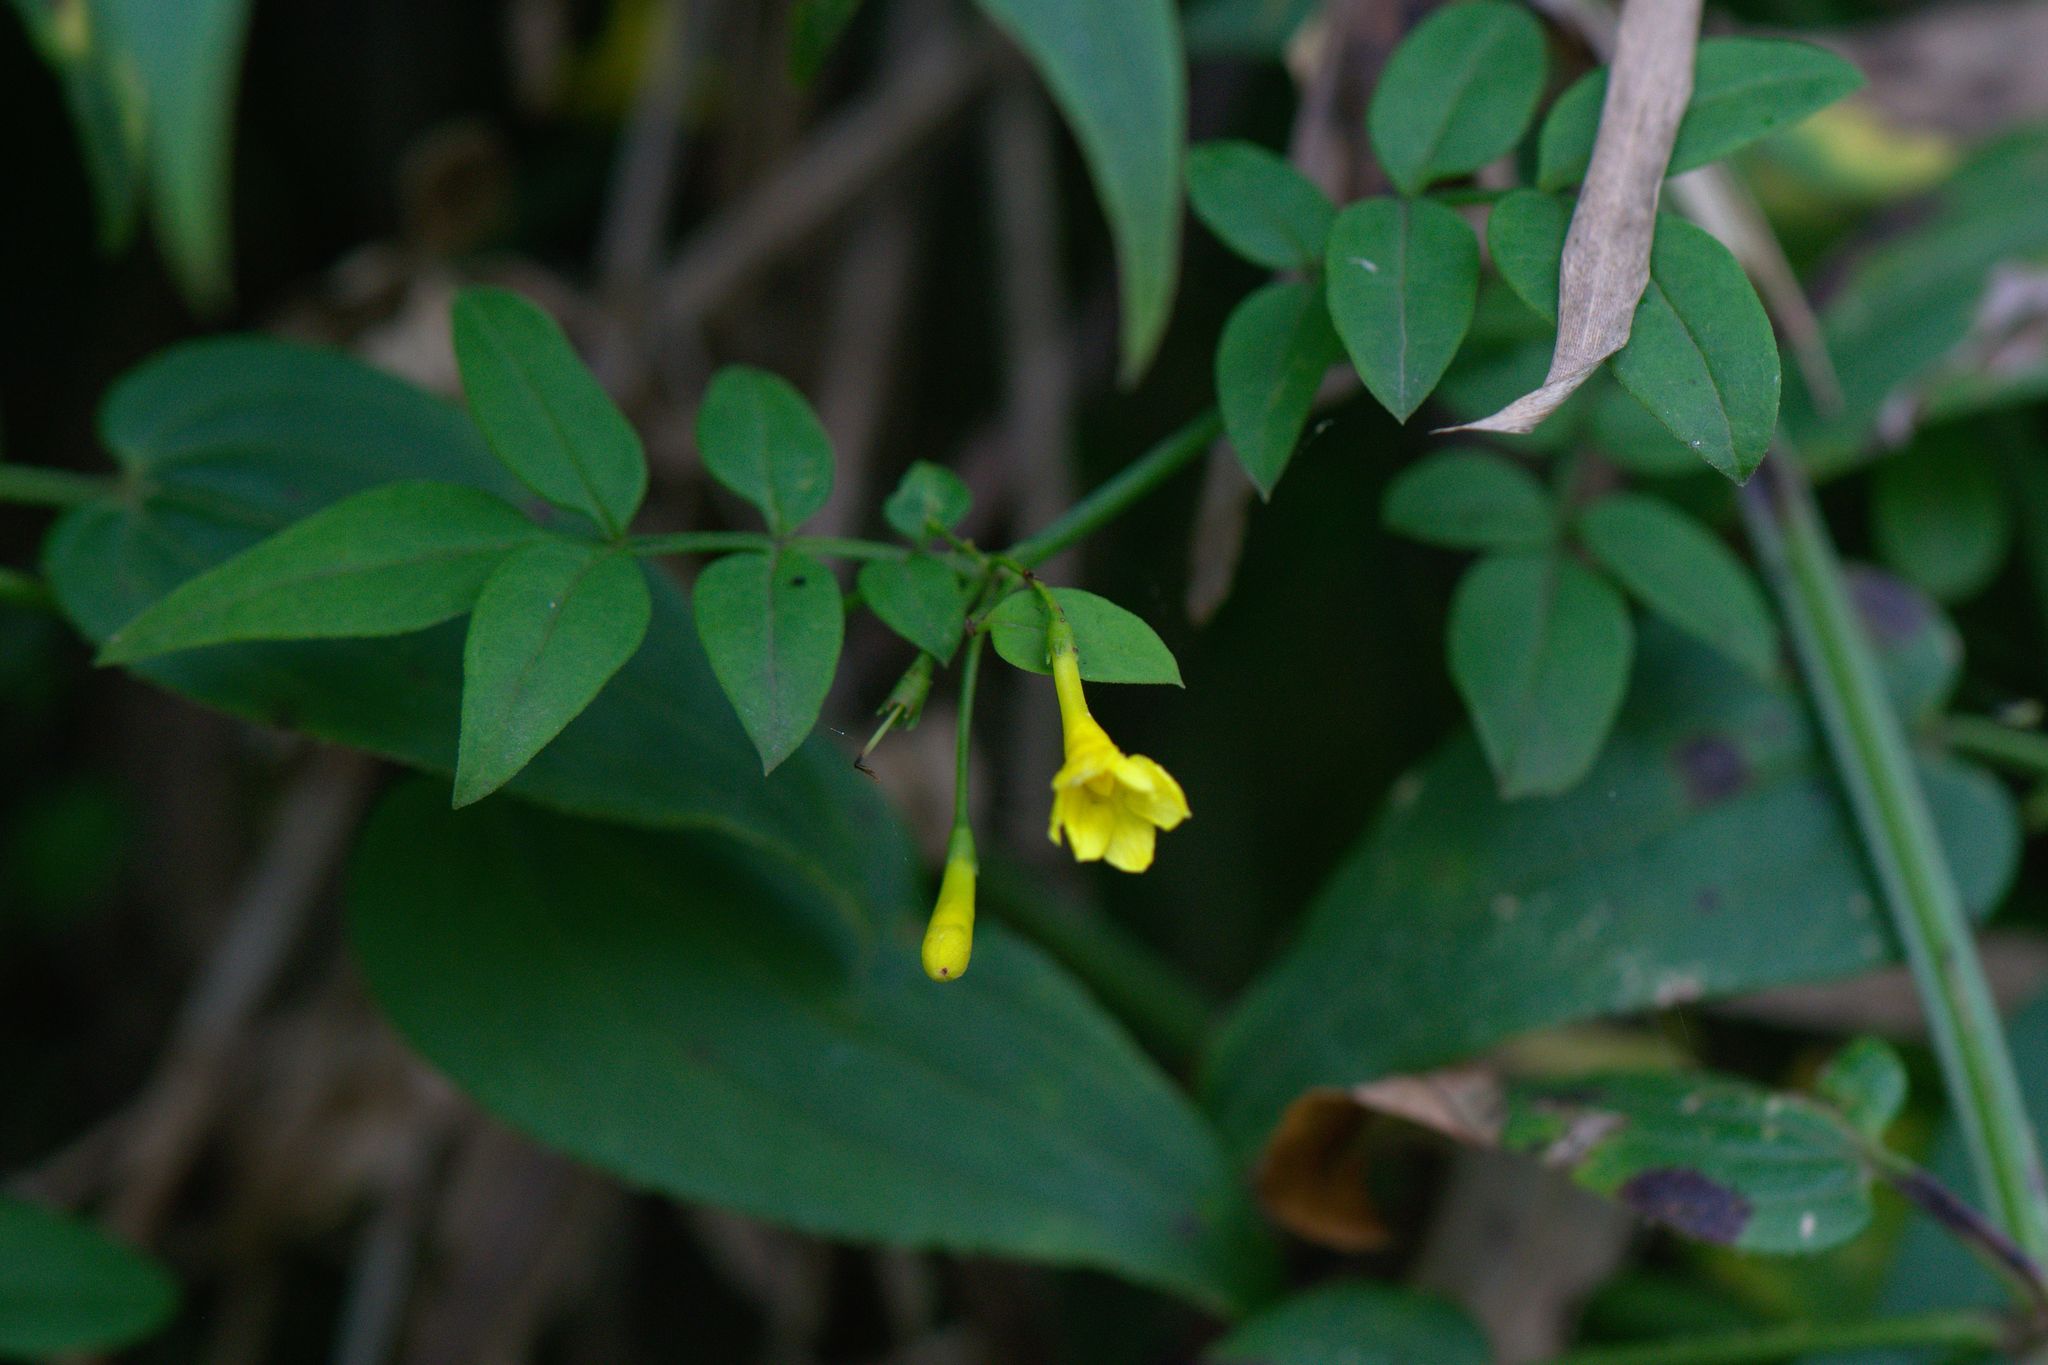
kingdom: Plantae
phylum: Tracheophyta
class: Magnoliopsida
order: Lamiales
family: Oleaceae
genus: Chrysojasminum
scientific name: Chrysojasminum humile
